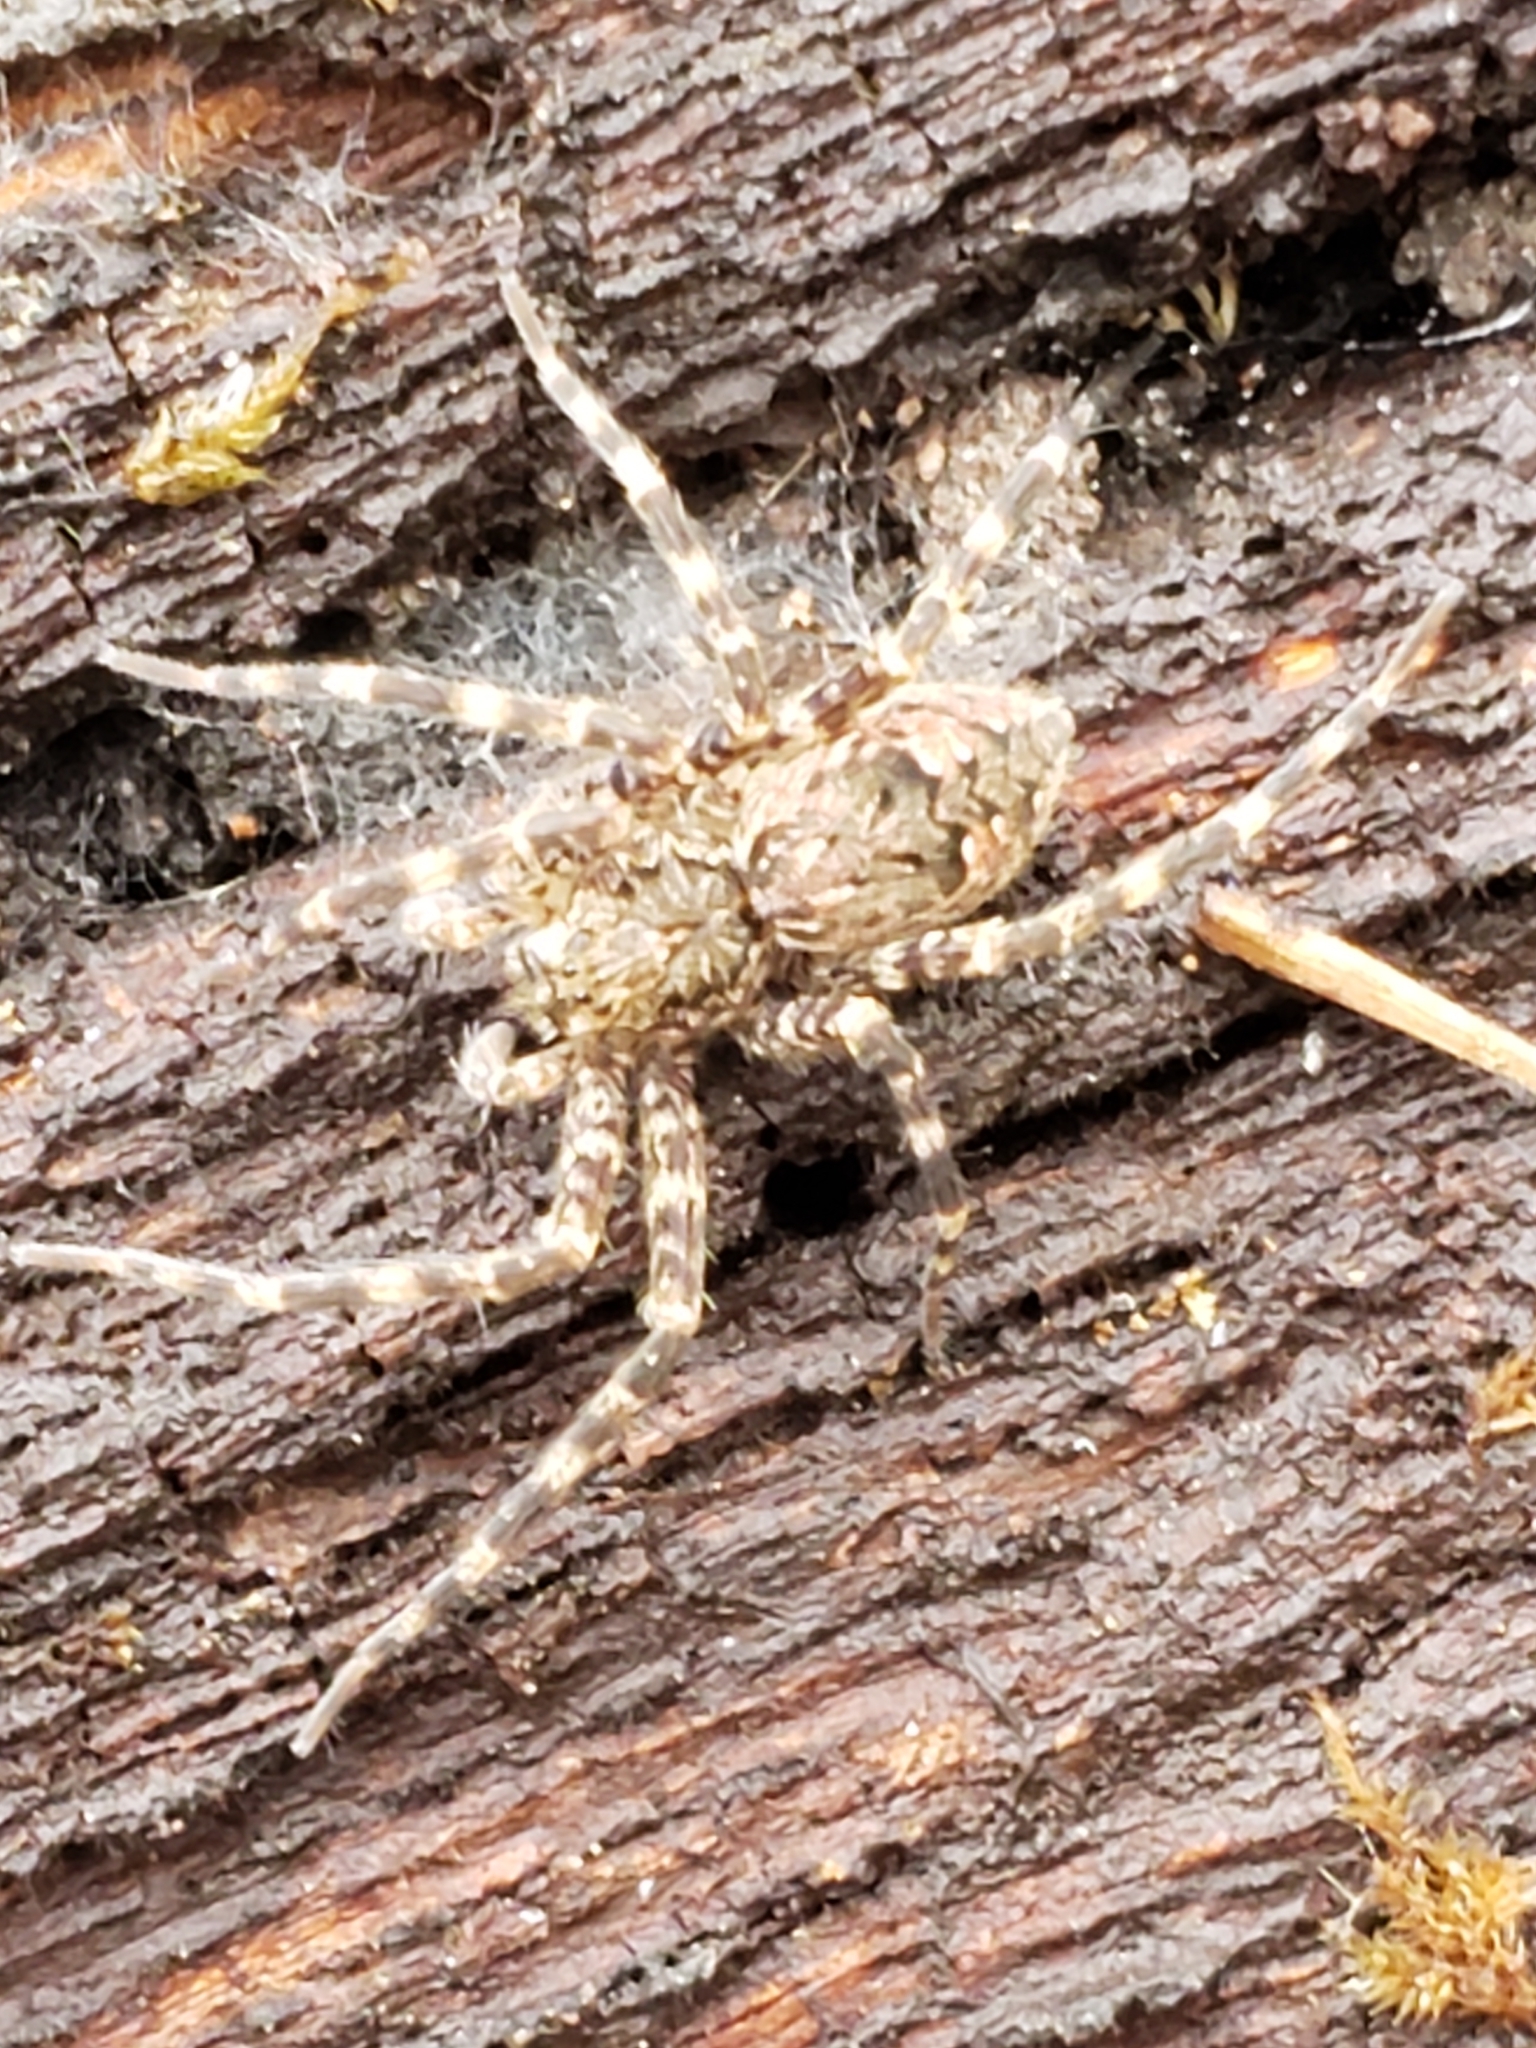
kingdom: Animalia
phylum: Arthropoda
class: Arachnida
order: Araneae
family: Pisauridae
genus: Dolomedes
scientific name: Dolomedes tenebrosus
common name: Dark fishing spider
